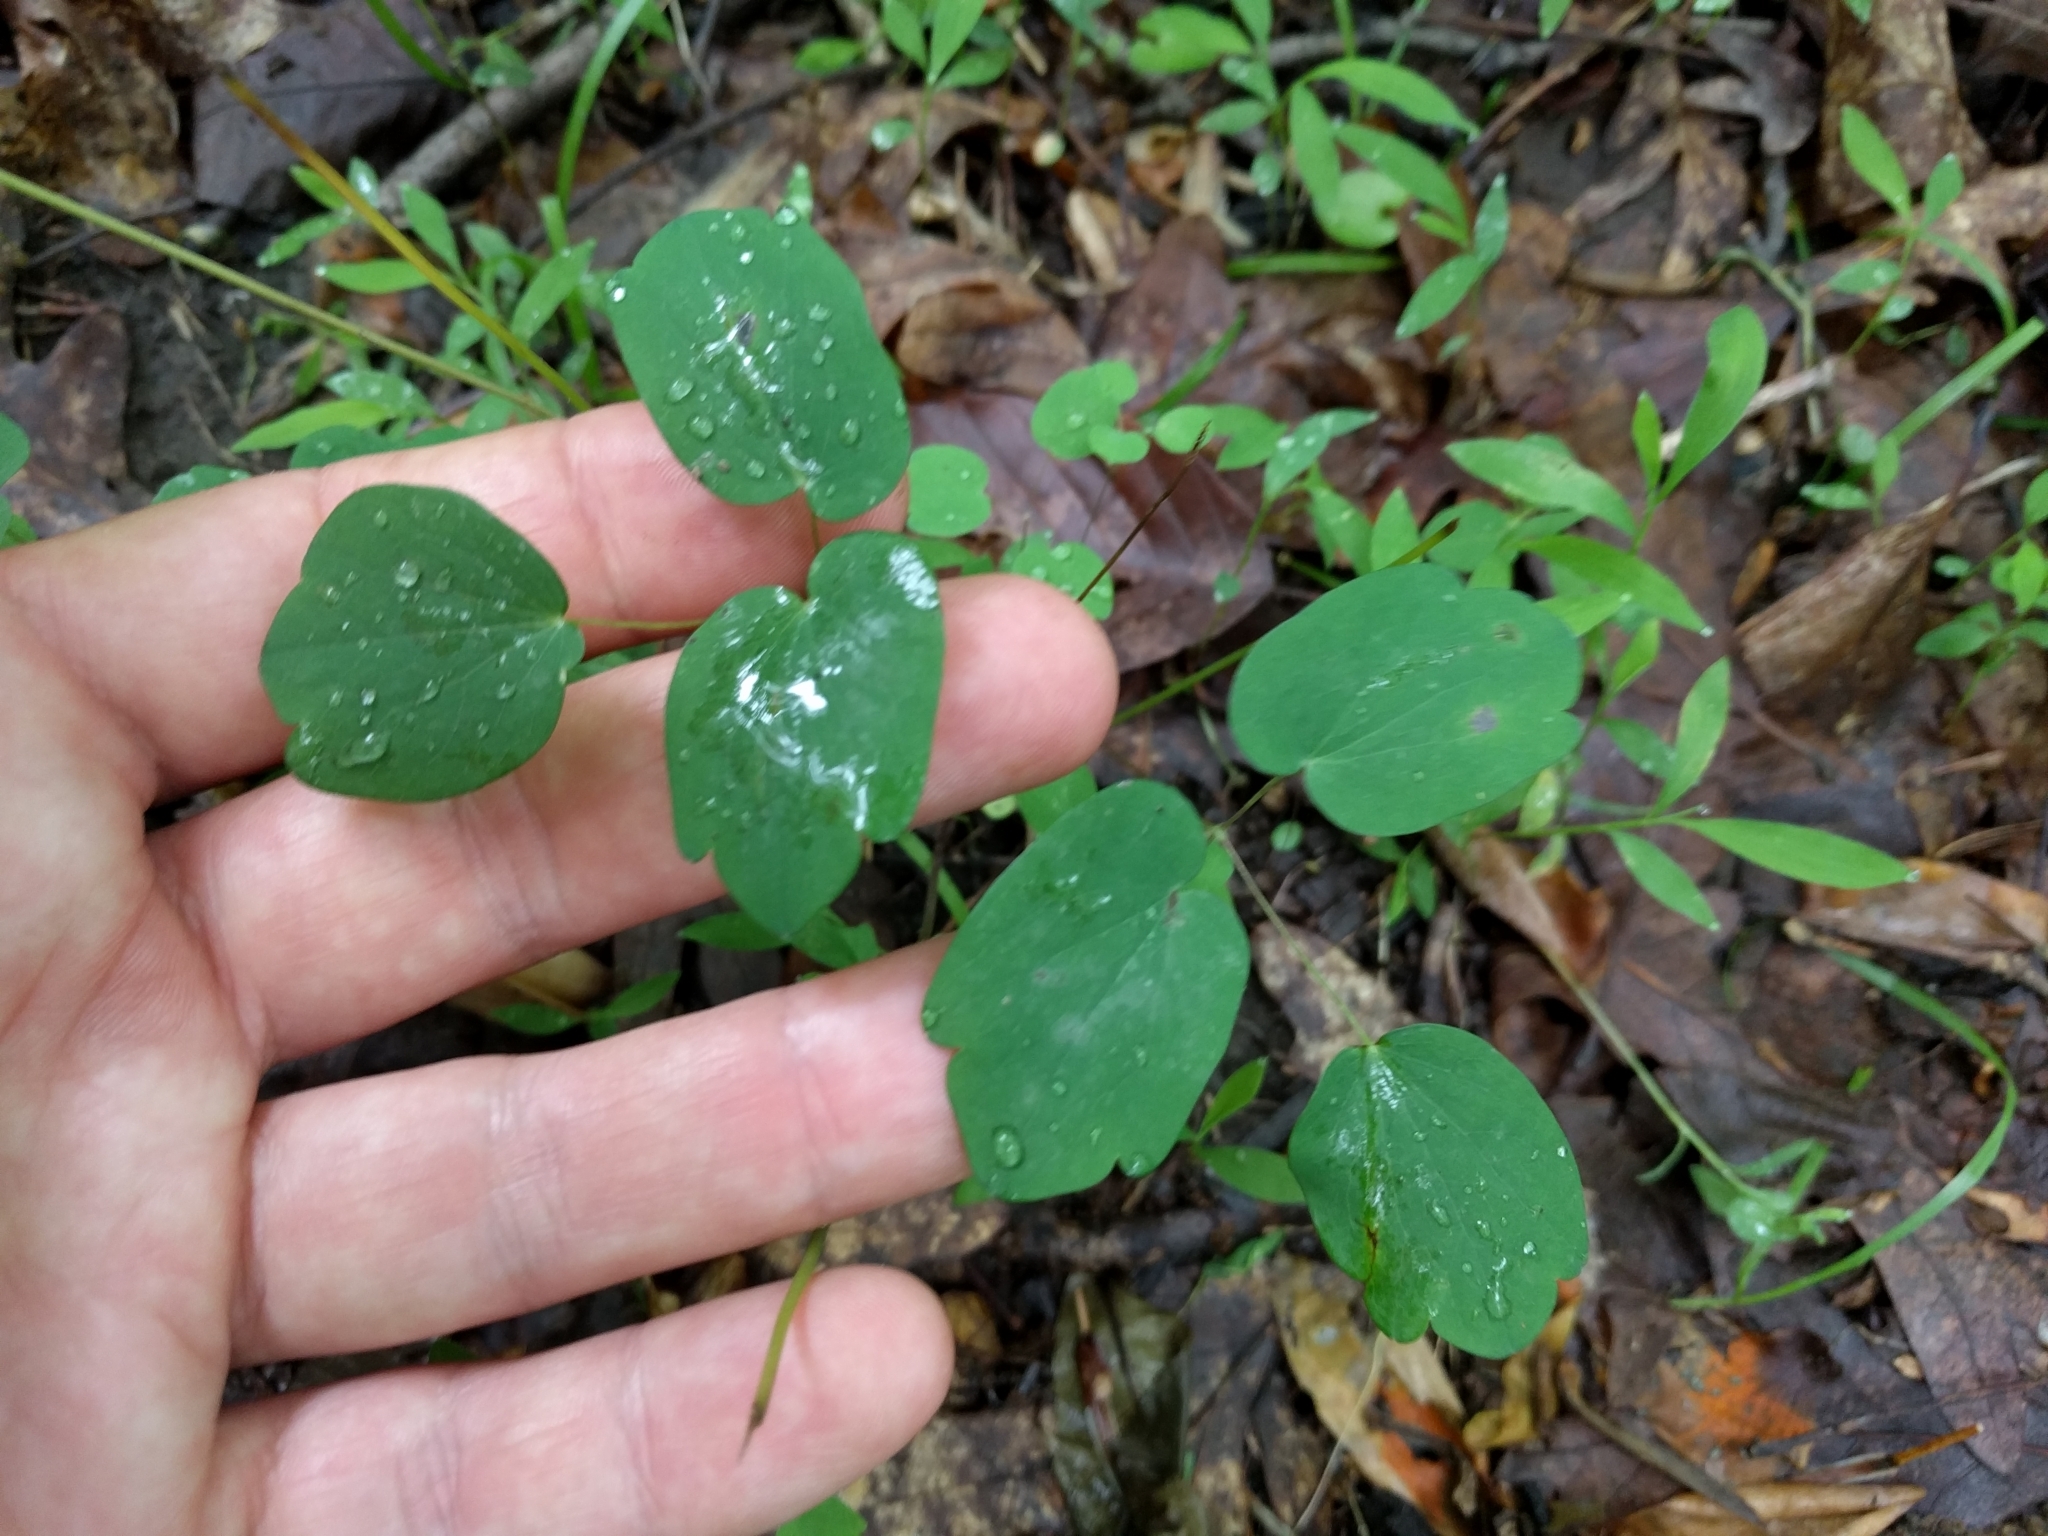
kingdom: Plantae
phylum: Tracheophyta
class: Magnoliopsida
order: Ranunculales
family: Ranunculaceae
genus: Thalictrum
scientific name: Thalictrum thalictroides
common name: Rue-anemone
